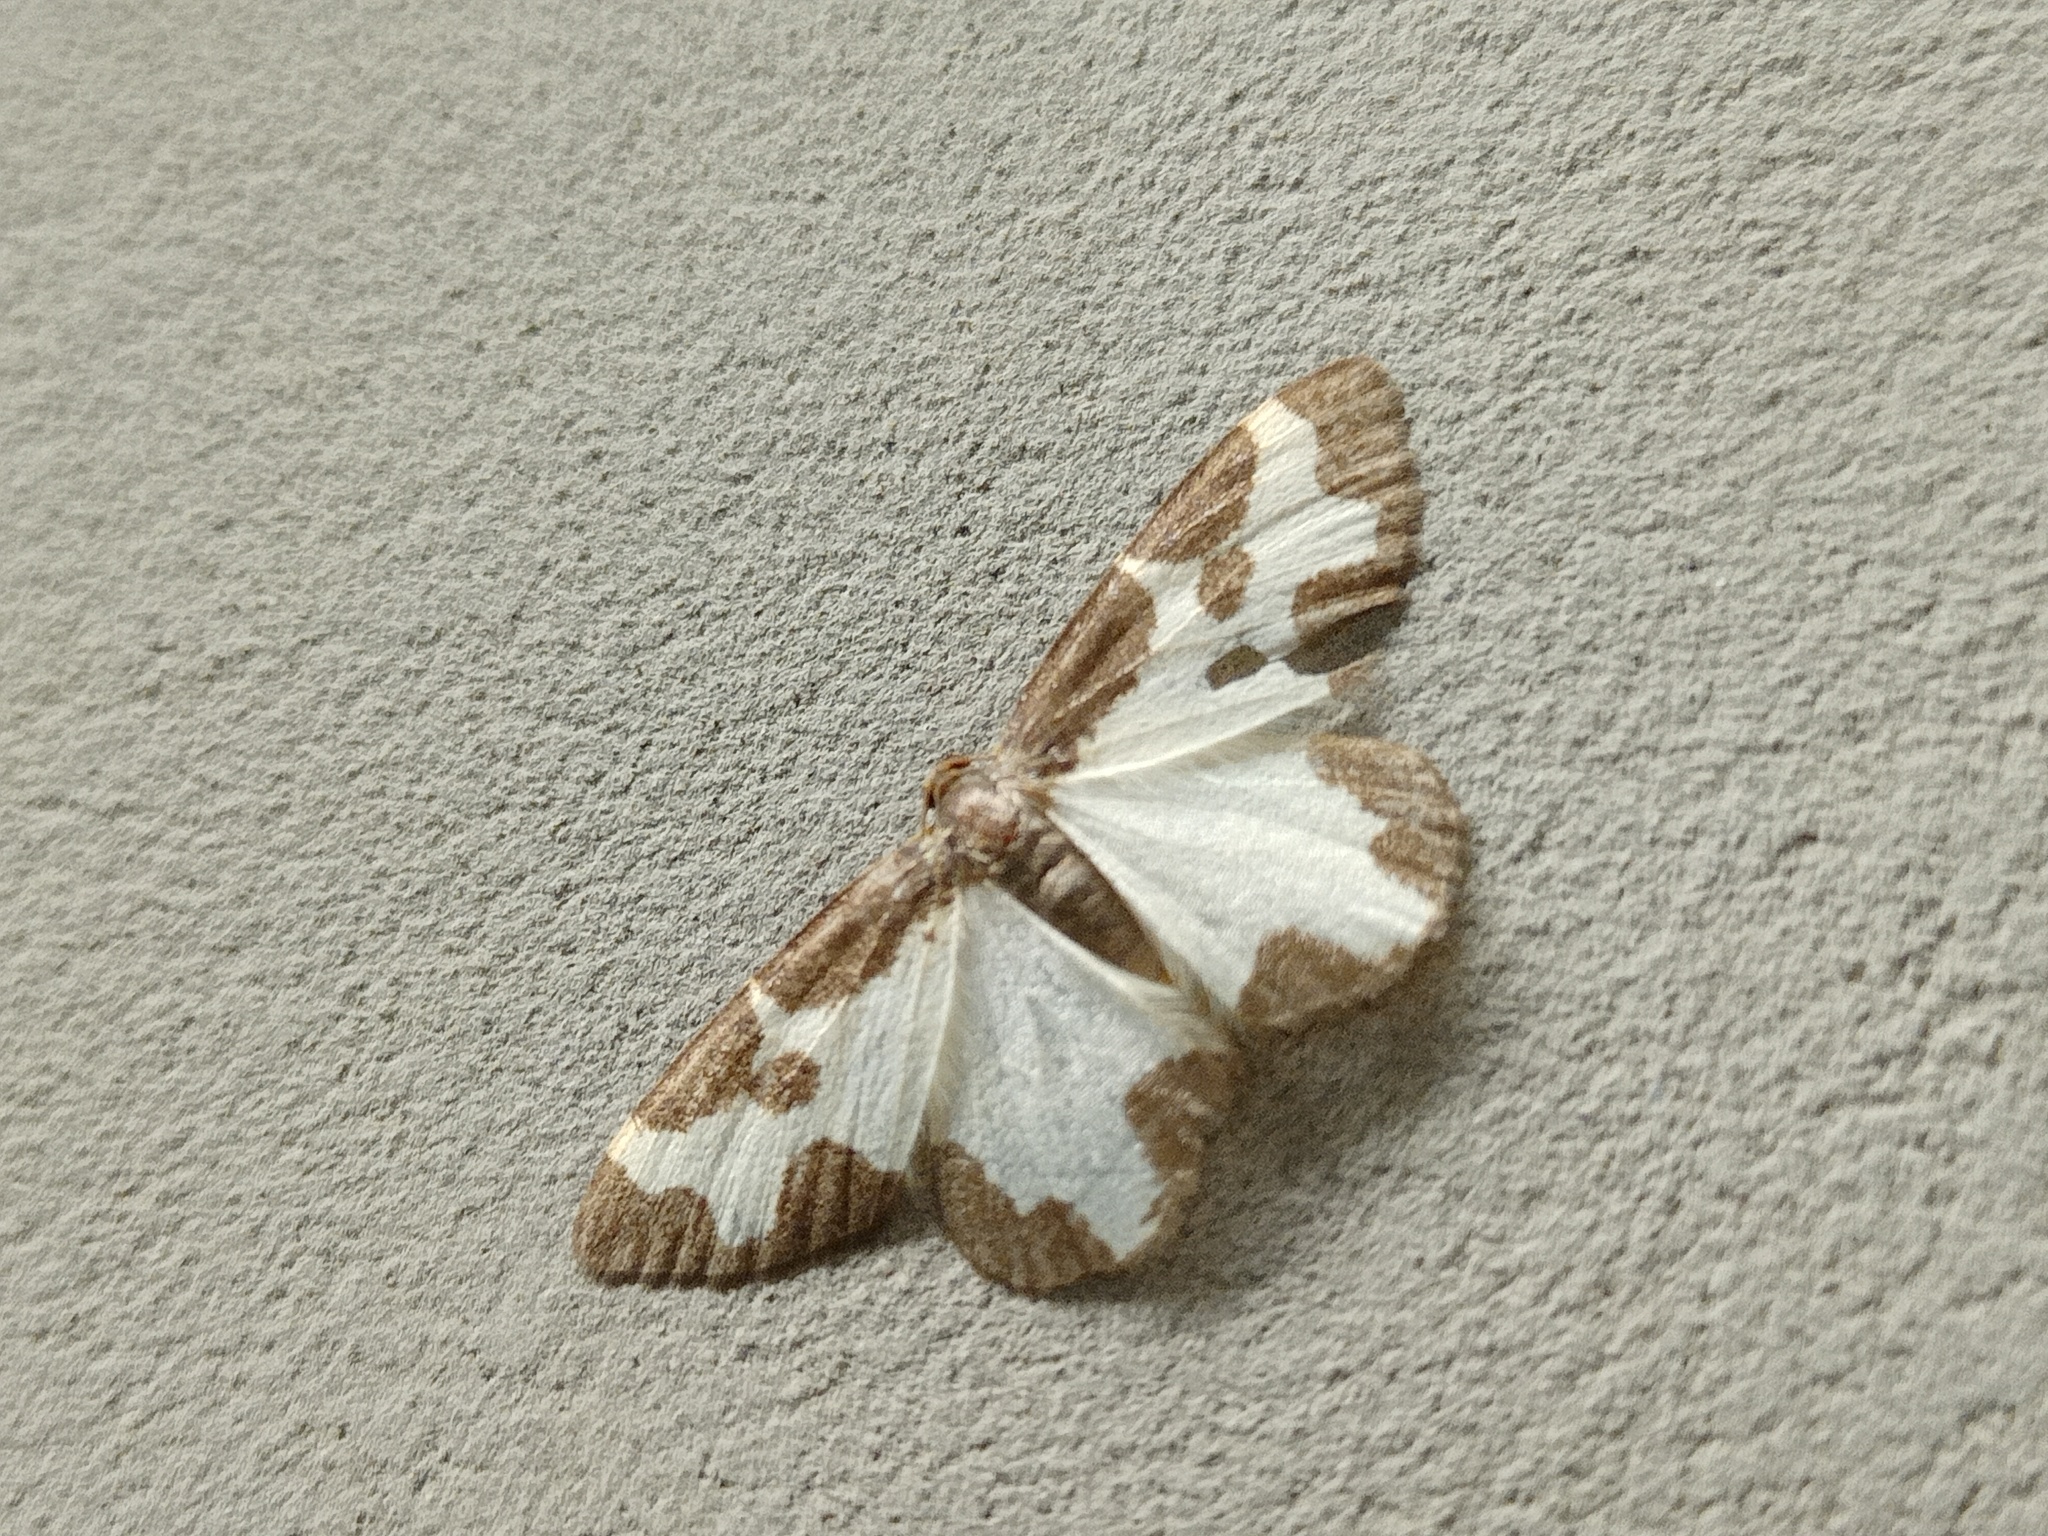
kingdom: Animalia
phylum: Arthropoda
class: Insecta
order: Lepidoptera
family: Geometridae
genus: Lomaspilis
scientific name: Lomaspilis marginata
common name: Clouded border
